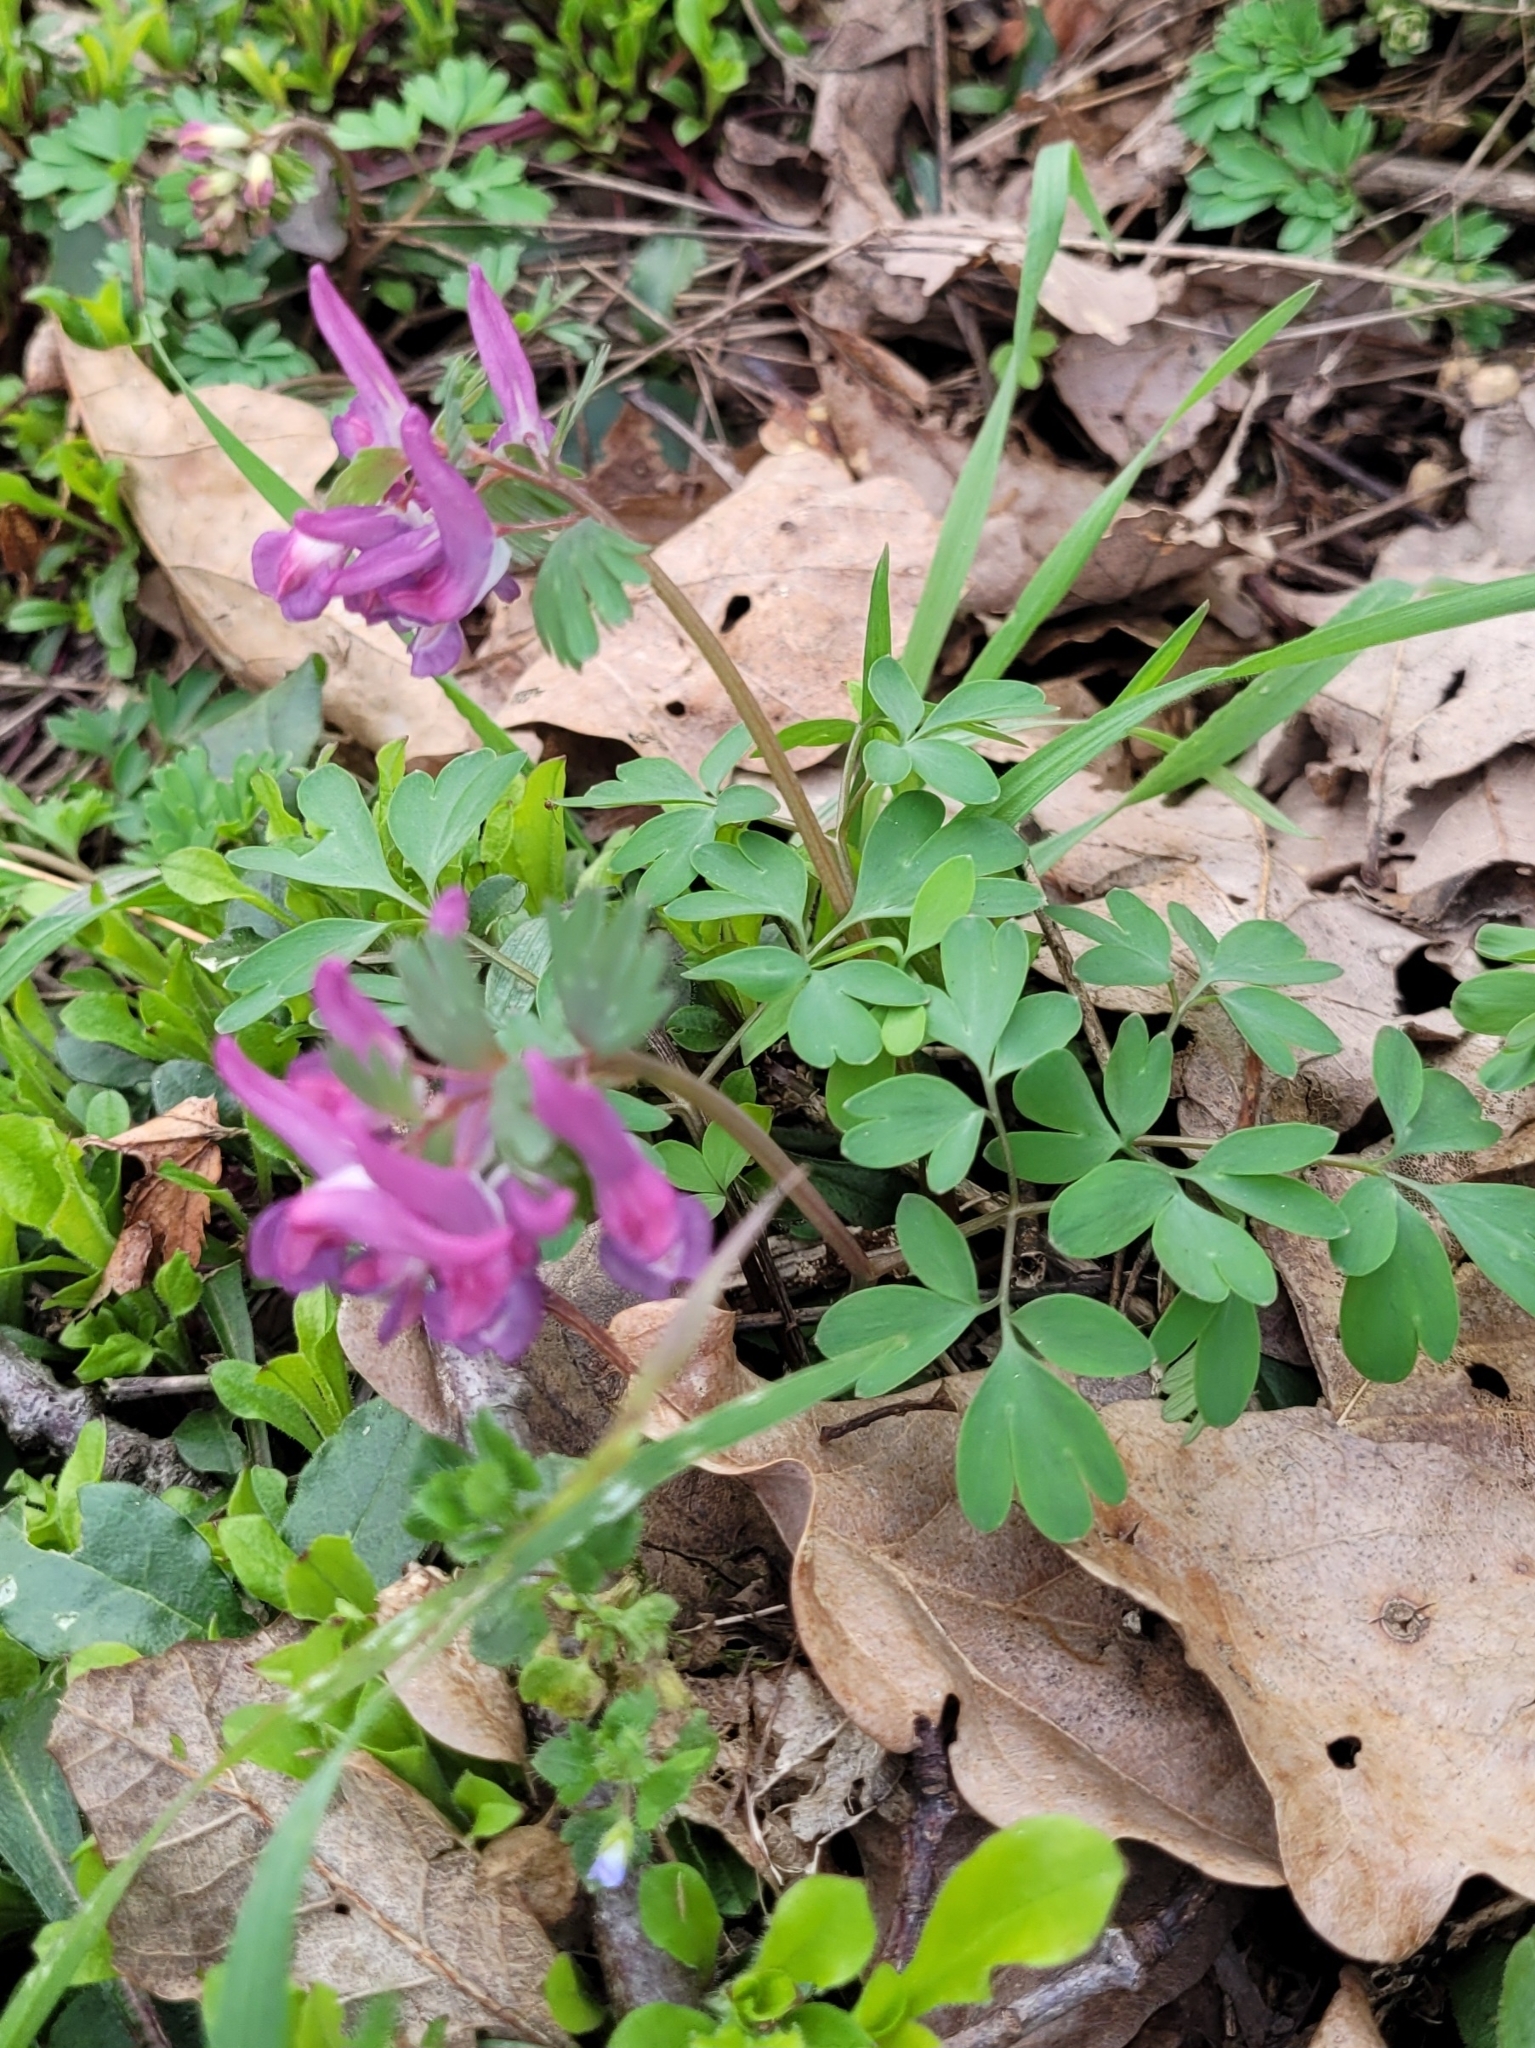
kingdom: Plantae
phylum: Tracheophyta
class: Magnoliopsida
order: Ranunculales
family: Papaveraceae
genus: Corydalis
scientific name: Corydalis solida
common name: Bird-in-a-bush
